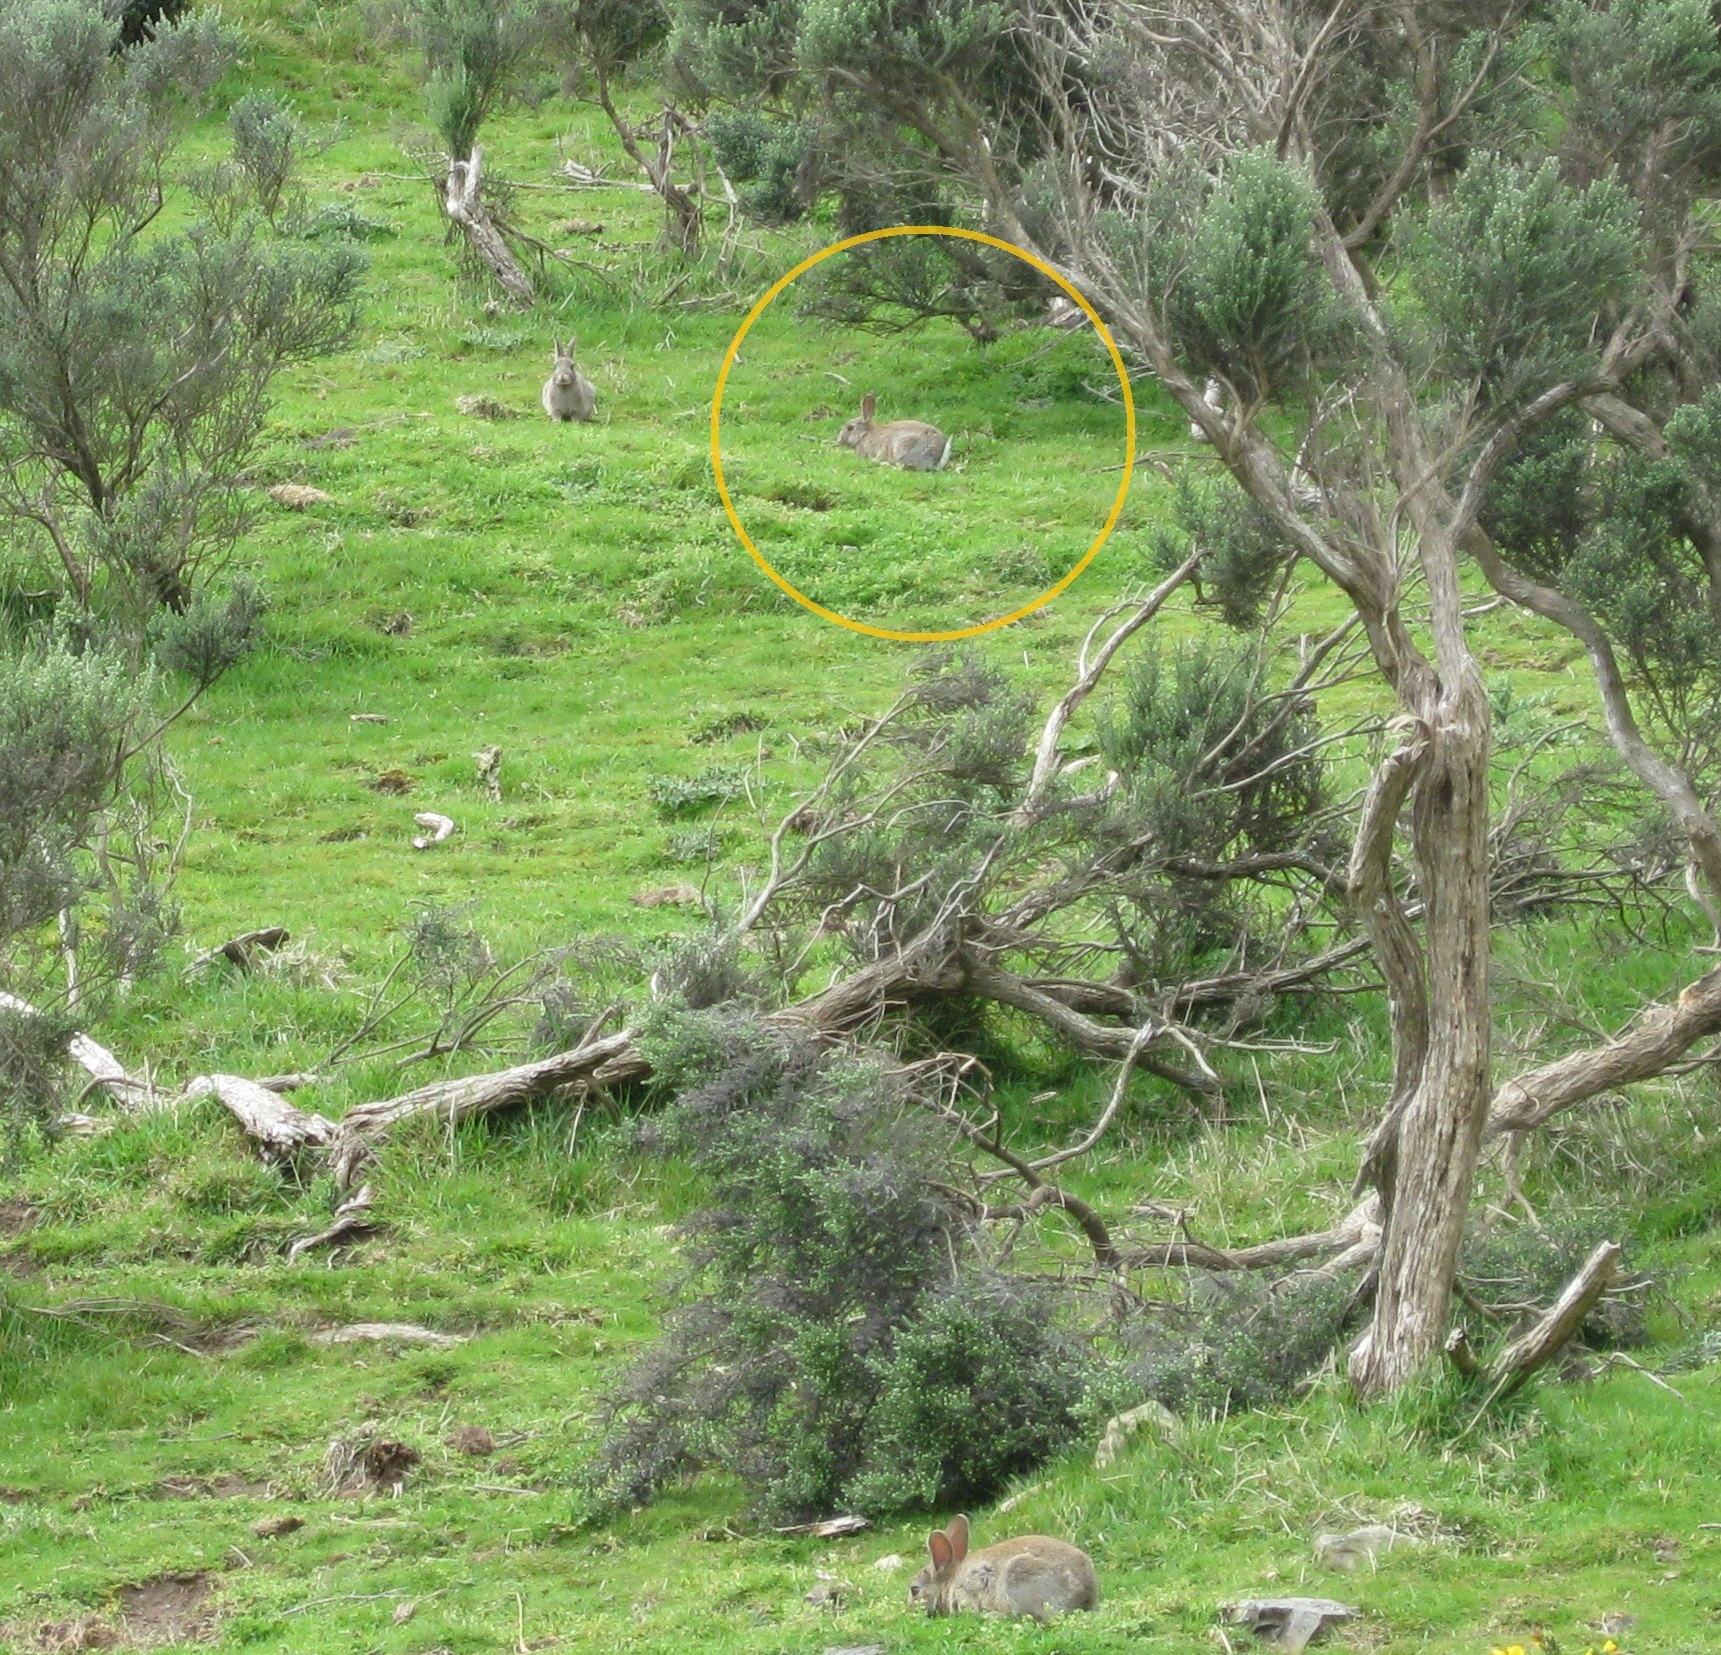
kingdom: Animalia
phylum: Chordata
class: Mammalia
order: Lagomorpha
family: Leporidae
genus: Oryctolagus
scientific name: Oryctolagus cuniculus
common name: European rabbit
